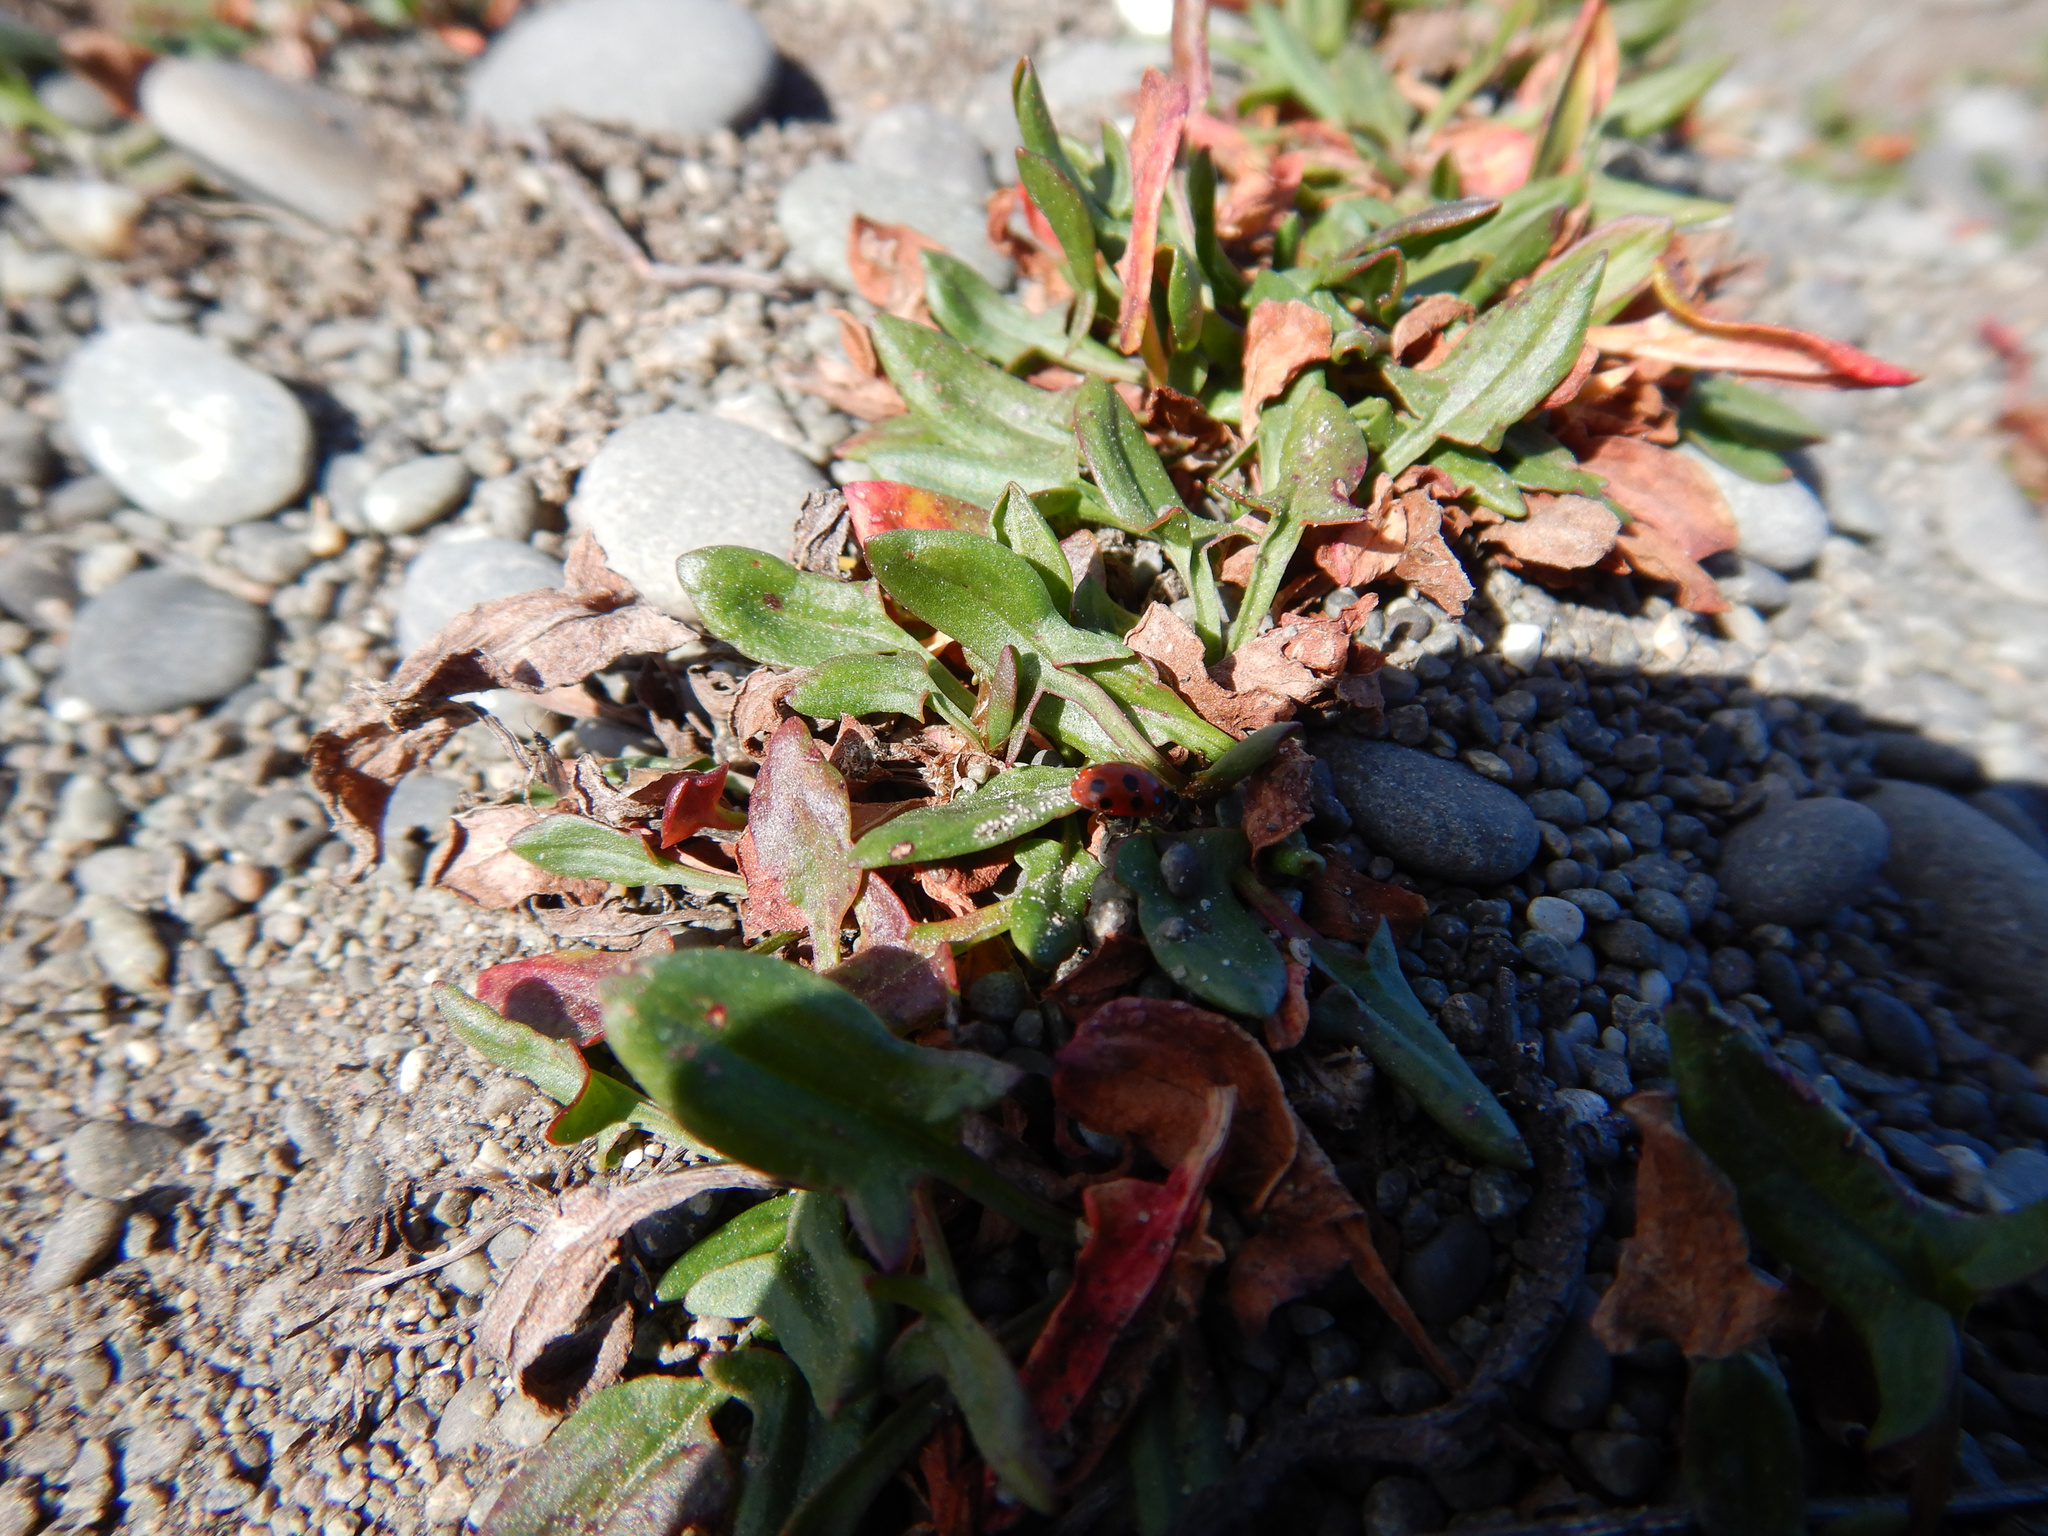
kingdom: Plantae
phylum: Tracheophyta
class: Magnoliopsida
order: Caryophyllales
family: Polygonaceae
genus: Rumex
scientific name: Rumex acetosella
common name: Common sheep sorrel
